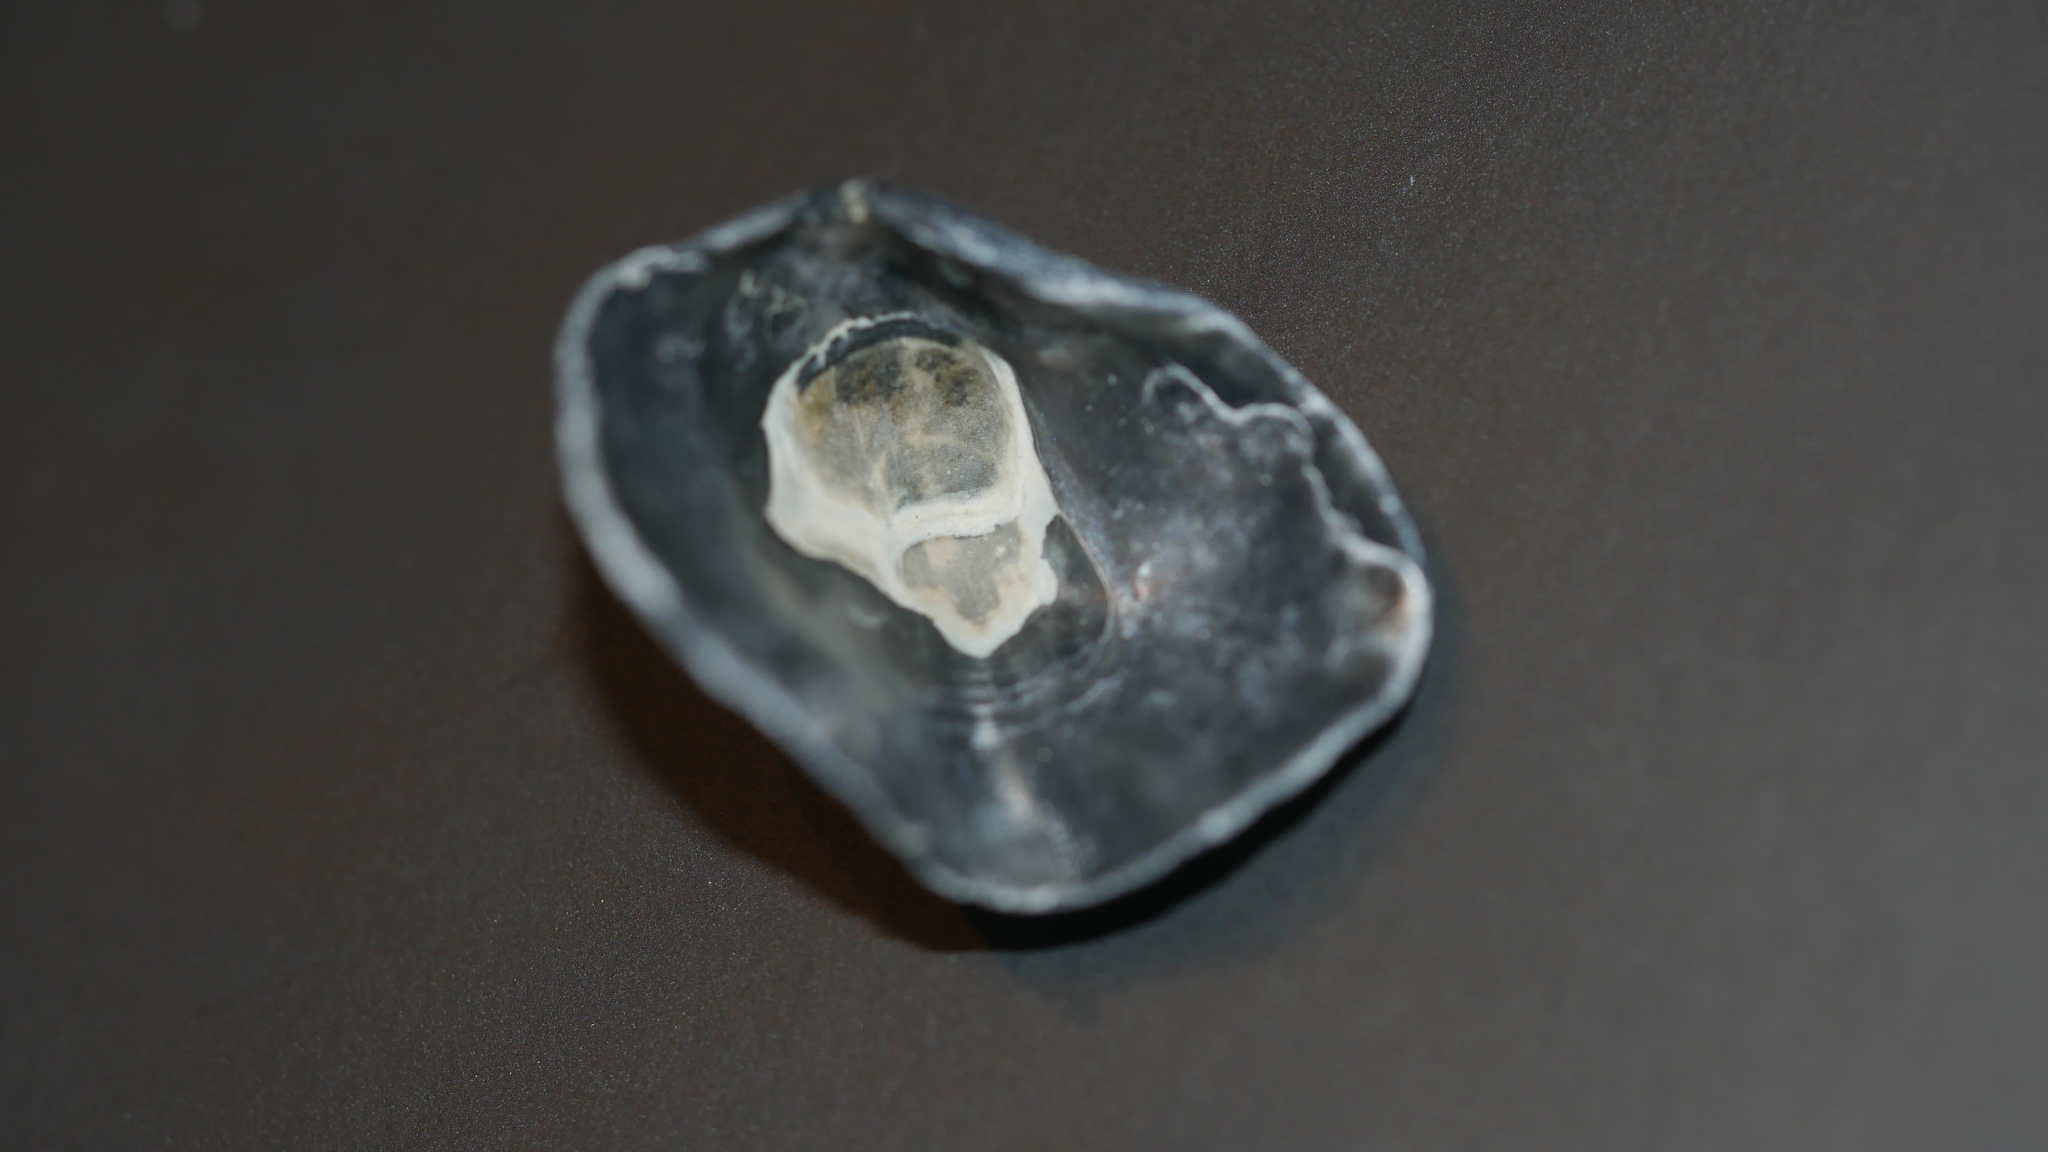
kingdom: Animalia
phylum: Mollusca
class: Bivalvia
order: Pectinida
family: Anomiidae
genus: Anomia
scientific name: Anomia simplex
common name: Common jingle shell
